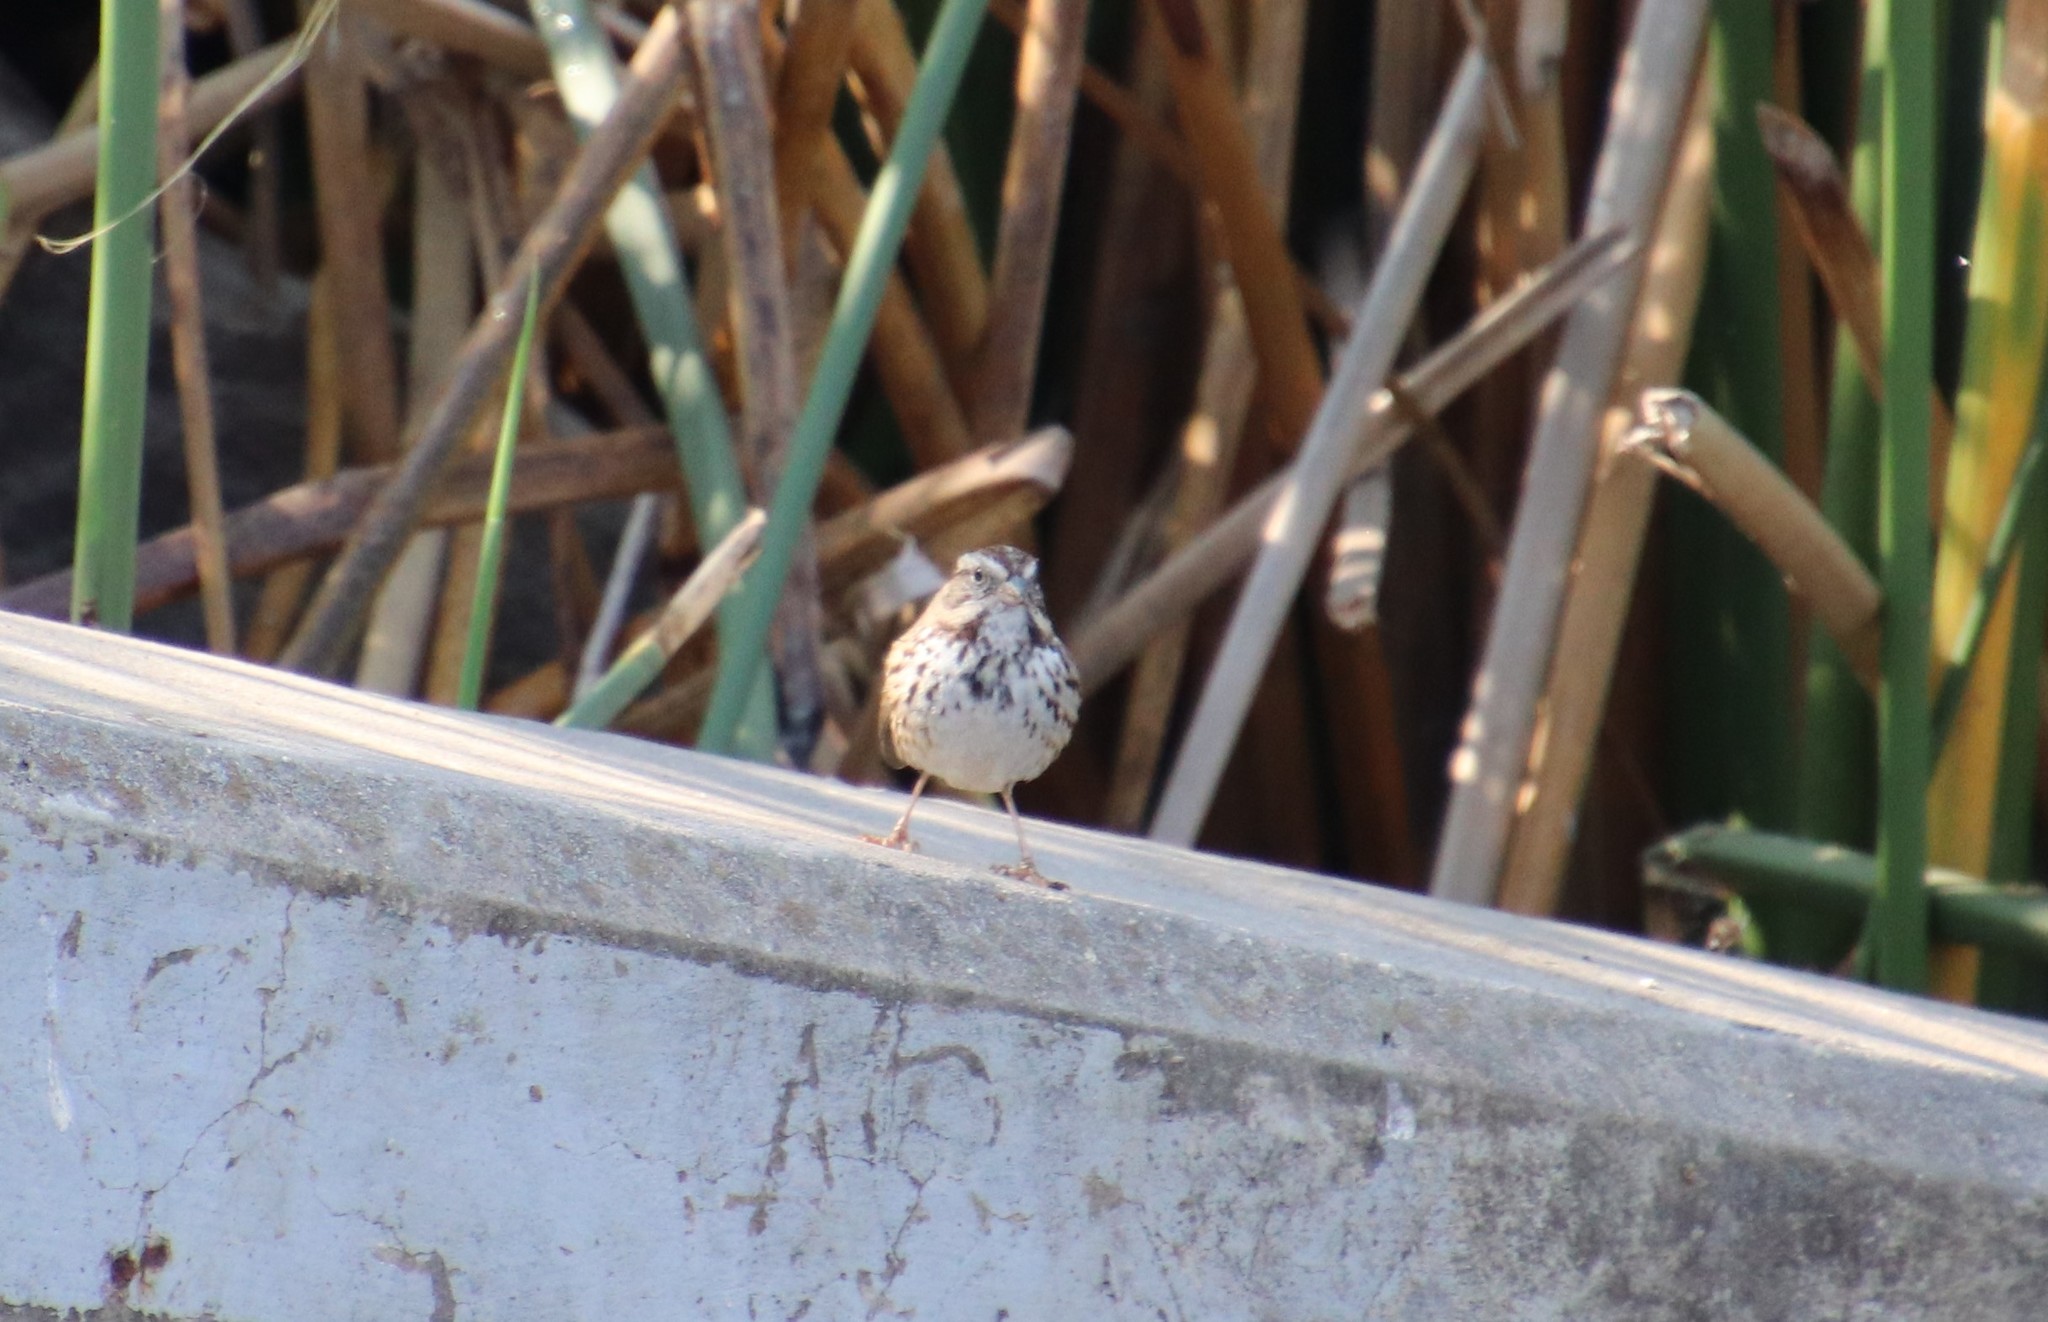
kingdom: Animalia
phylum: Chordata
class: Aves
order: Passeriformes
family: Passerellidae
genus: Melospiza
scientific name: Melospiza melodia
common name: Song sparrow
